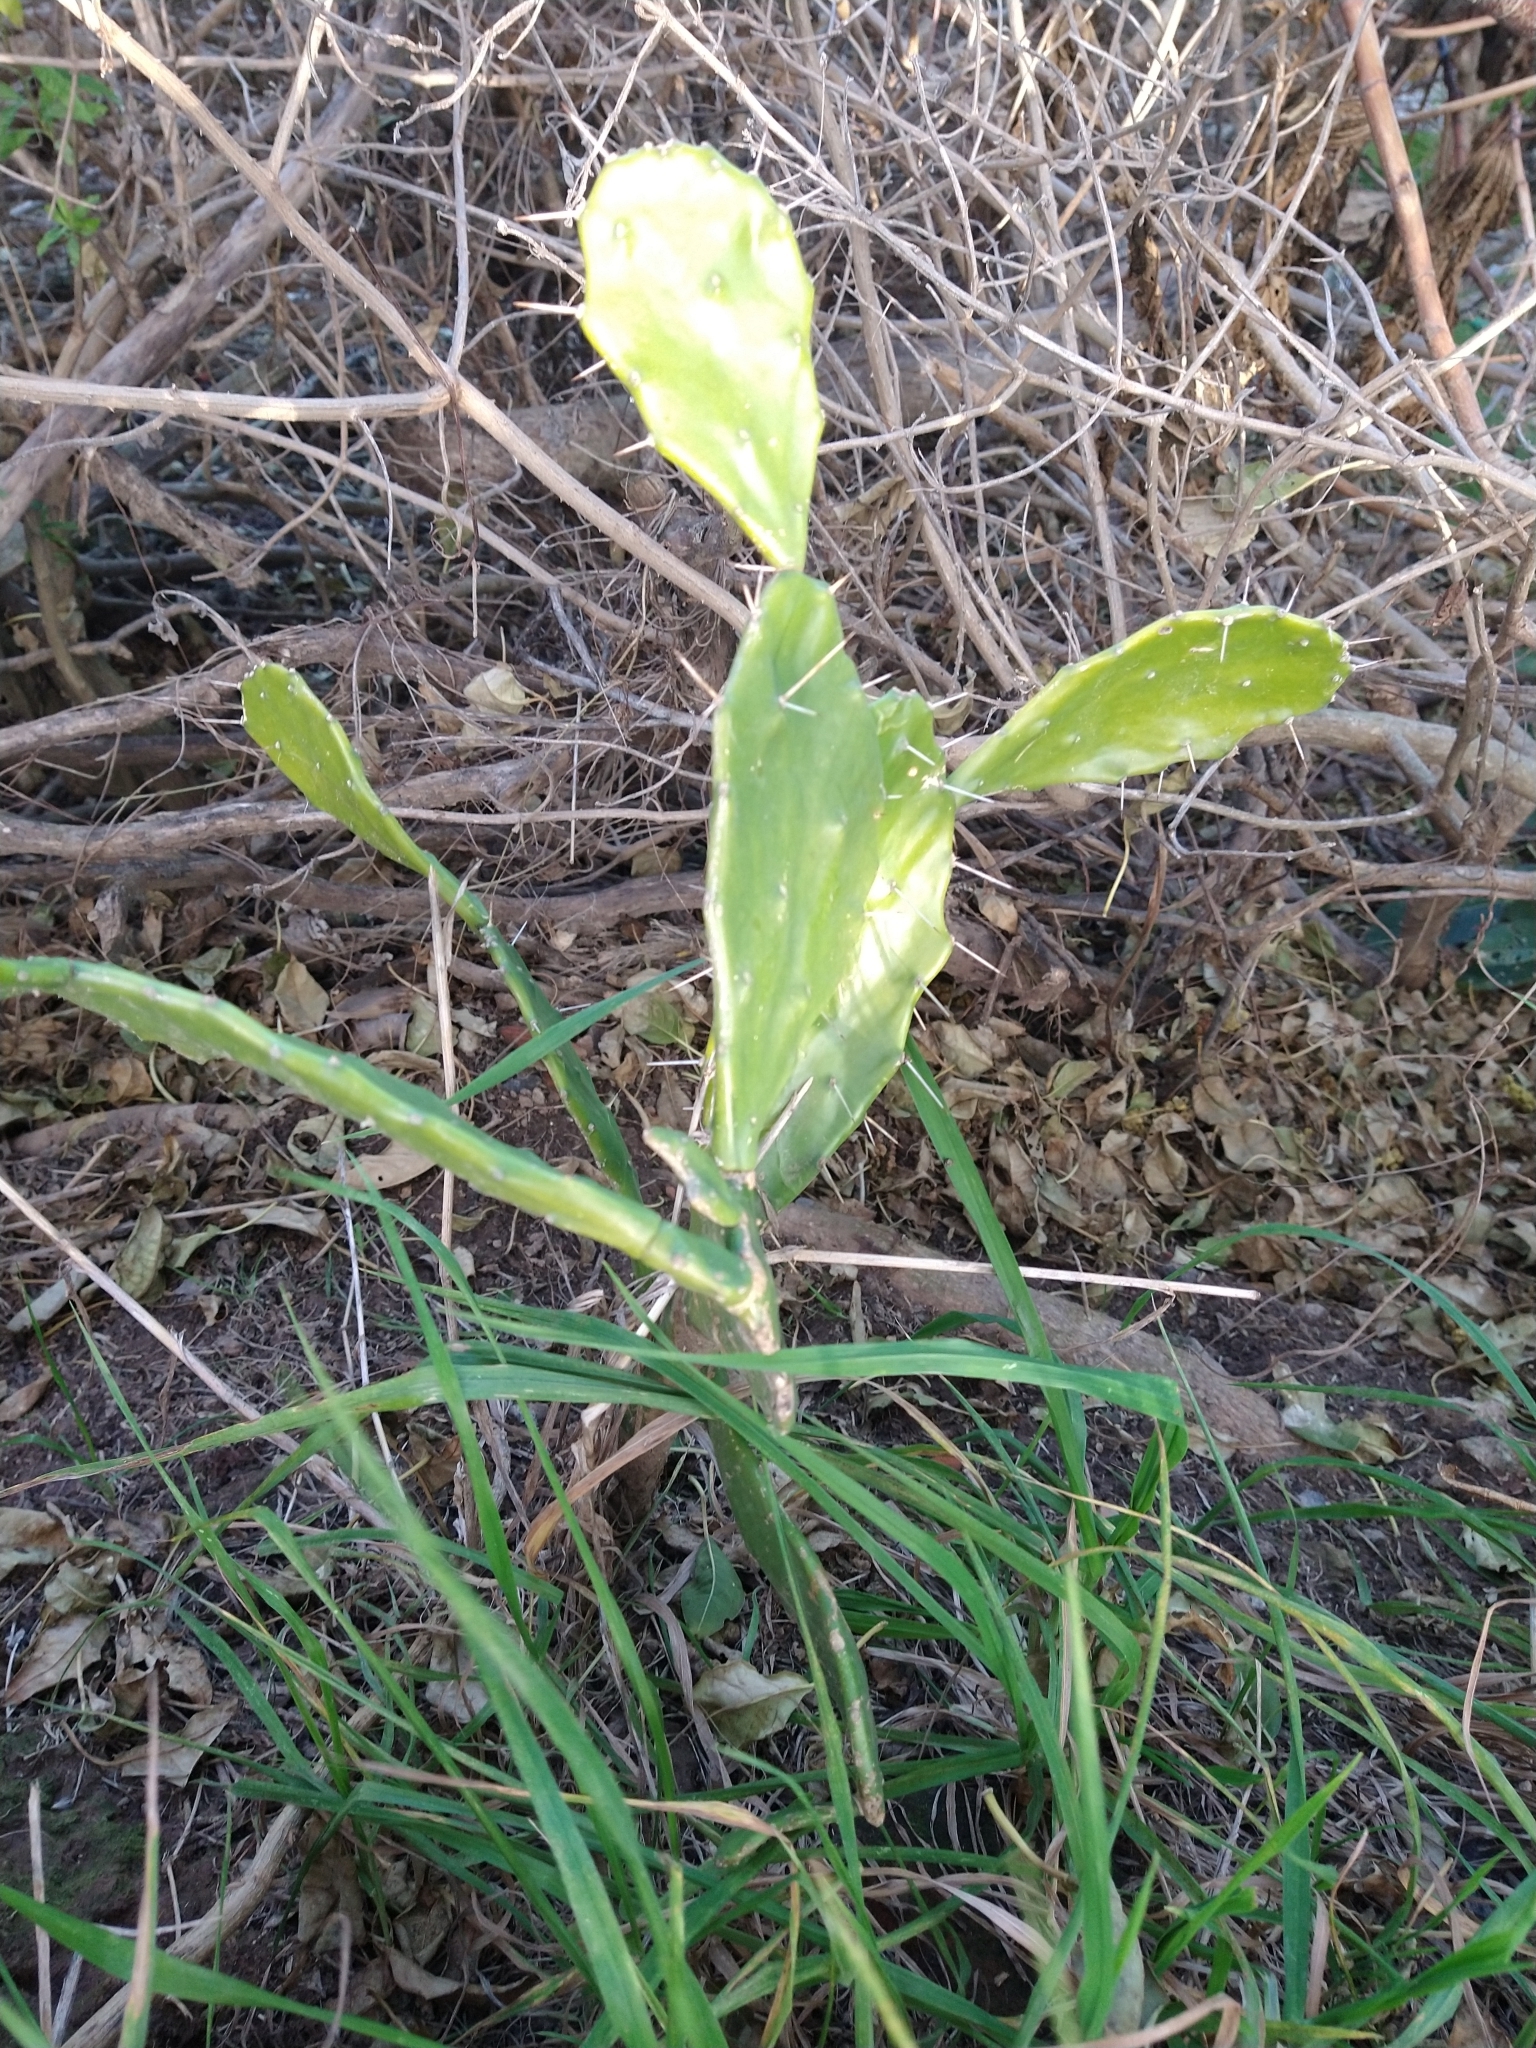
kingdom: Plantae
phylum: Tracheophyta
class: Magnoliopsida
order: Caryophyllales
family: Cactaceae
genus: Opuntia
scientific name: Opuntia monacantha
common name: Common pricklypear
